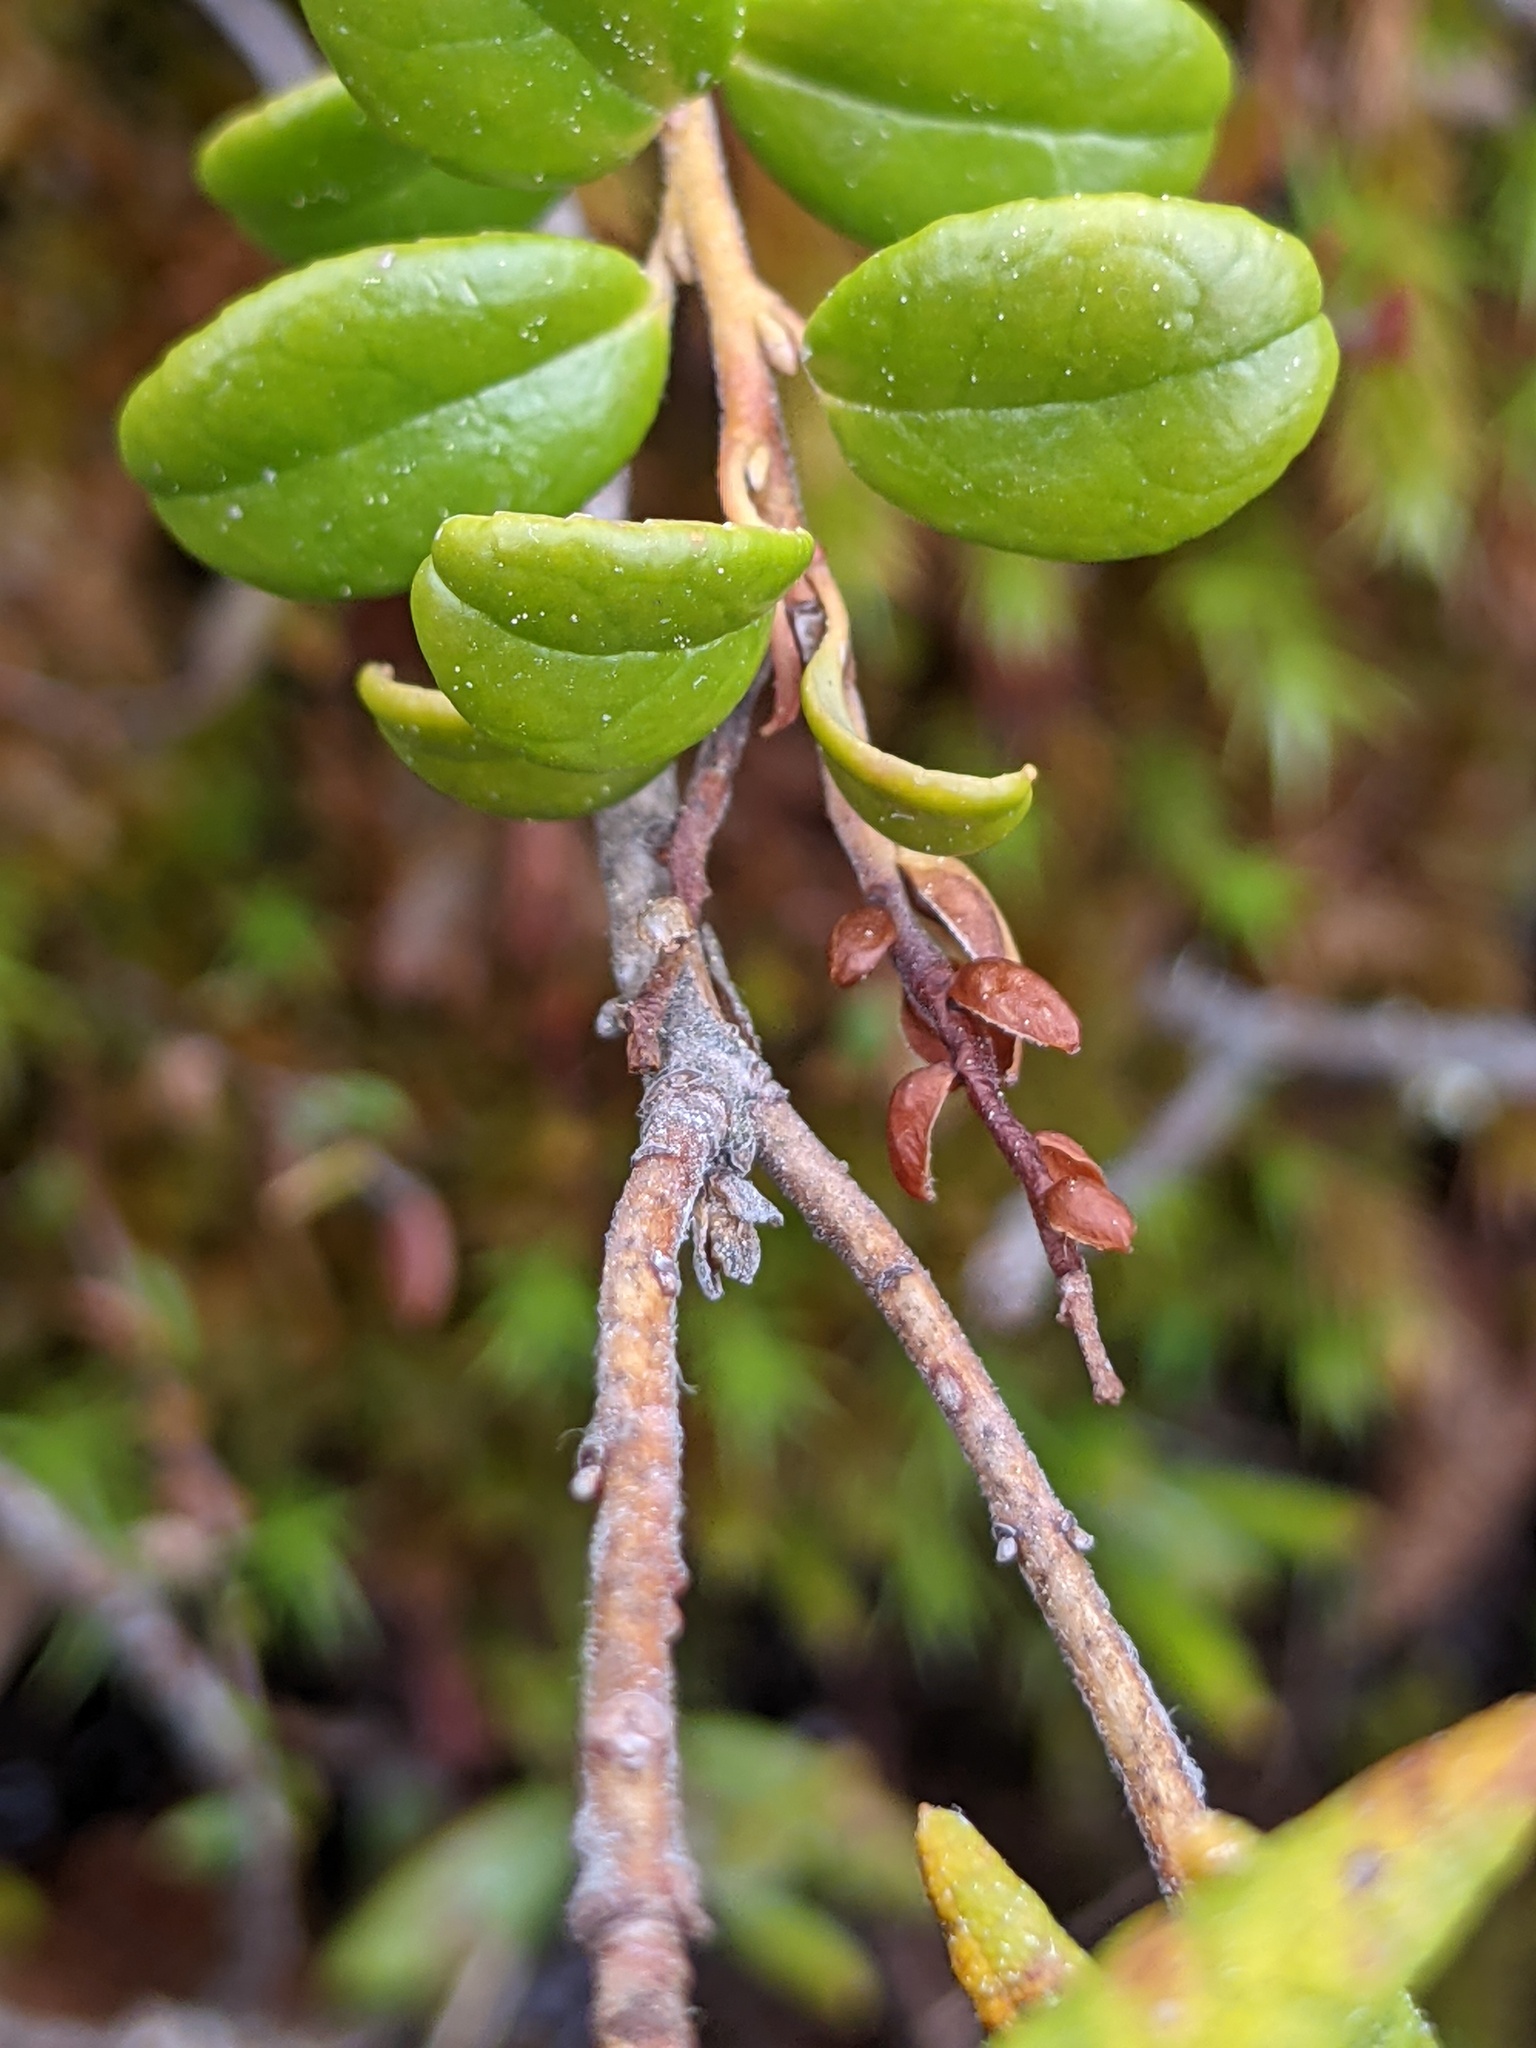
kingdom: Plantae
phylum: Tracheophyta
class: Magnoliopsida
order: Ericales
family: Ericaceae
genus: Vaccinium
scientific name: Vaccinium vitis-idaea
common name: Cowberry
